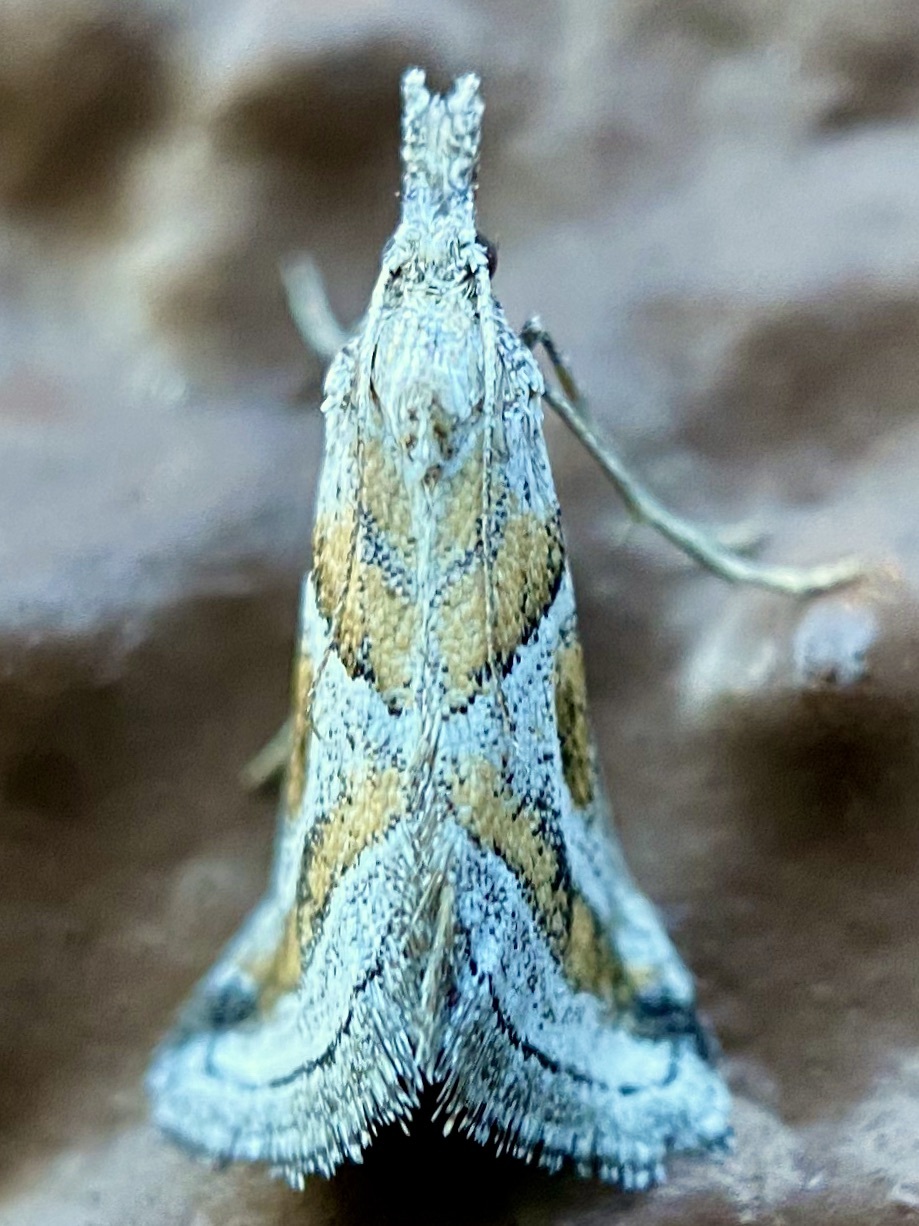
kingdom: Animalia
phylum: Arthropoda
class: Insecta
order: Lepidoptera
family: Pyralidae
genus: Alpheias
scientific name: Alpheias Decaturia pectinalis
